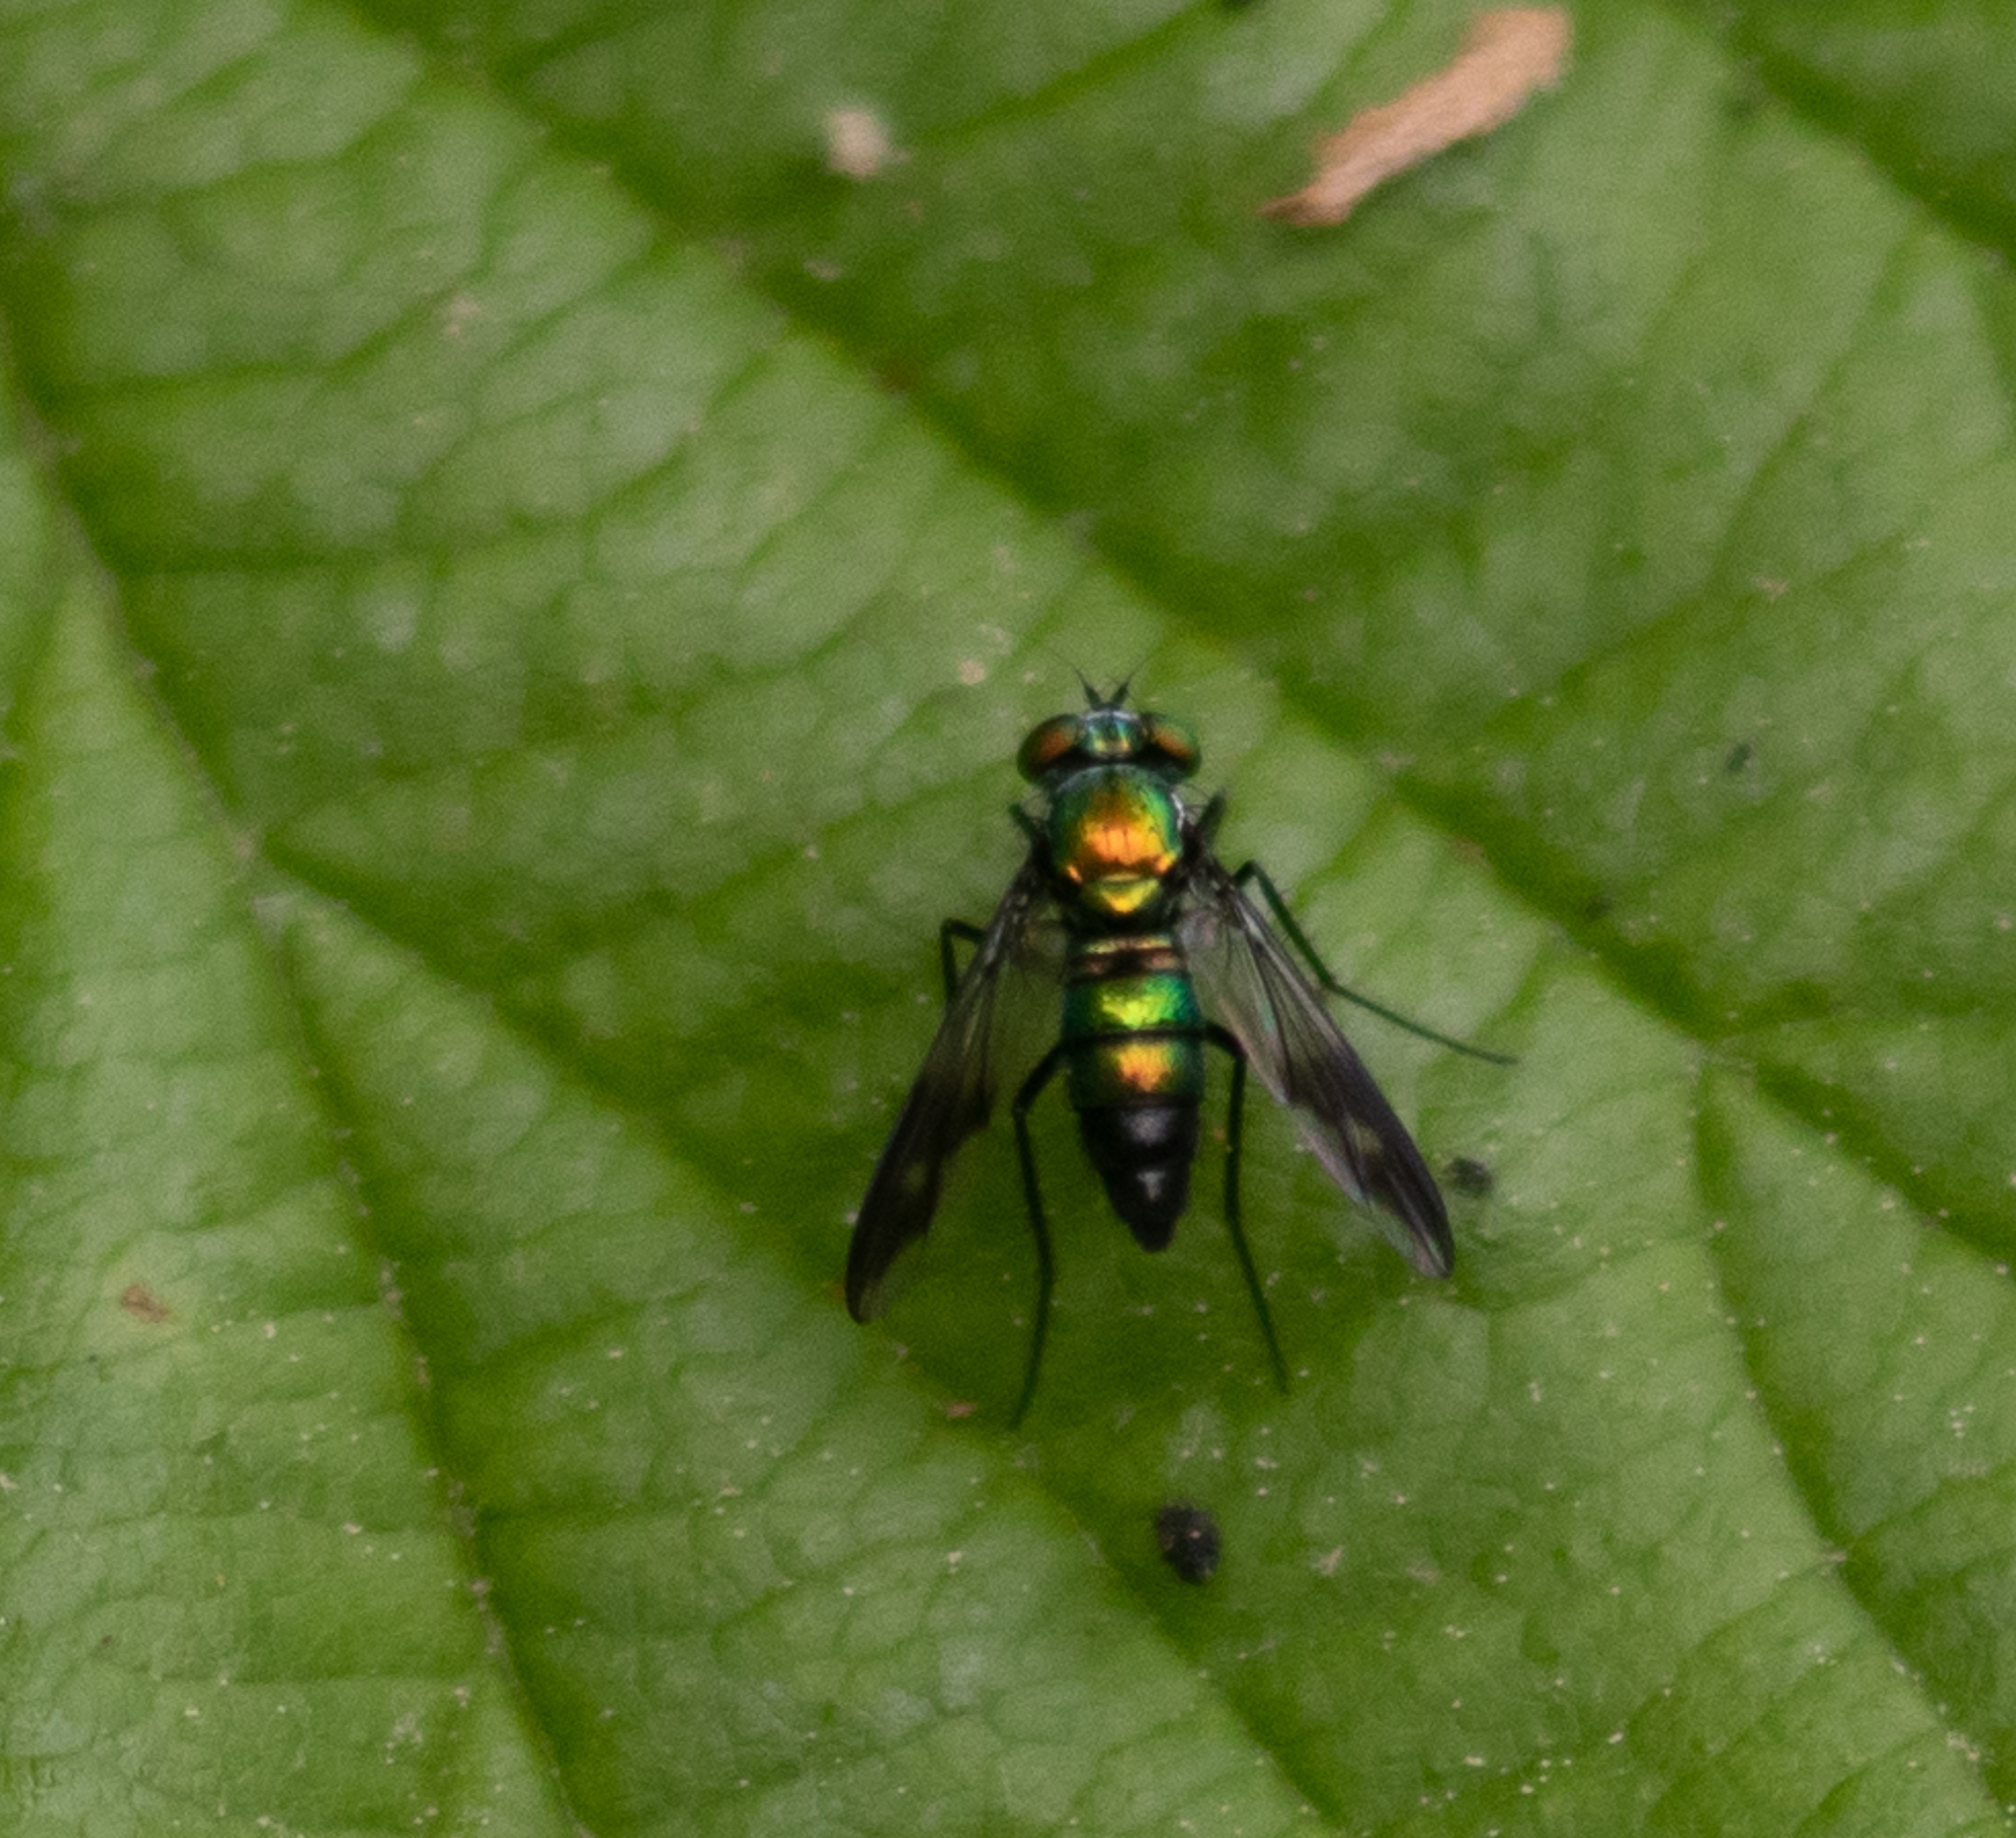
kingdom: Animalia
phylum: Arthropoda
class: Insecta
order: Diptera
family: Dolichopodidae
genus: Condylostylus
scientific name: Condylostylus patibulatus
